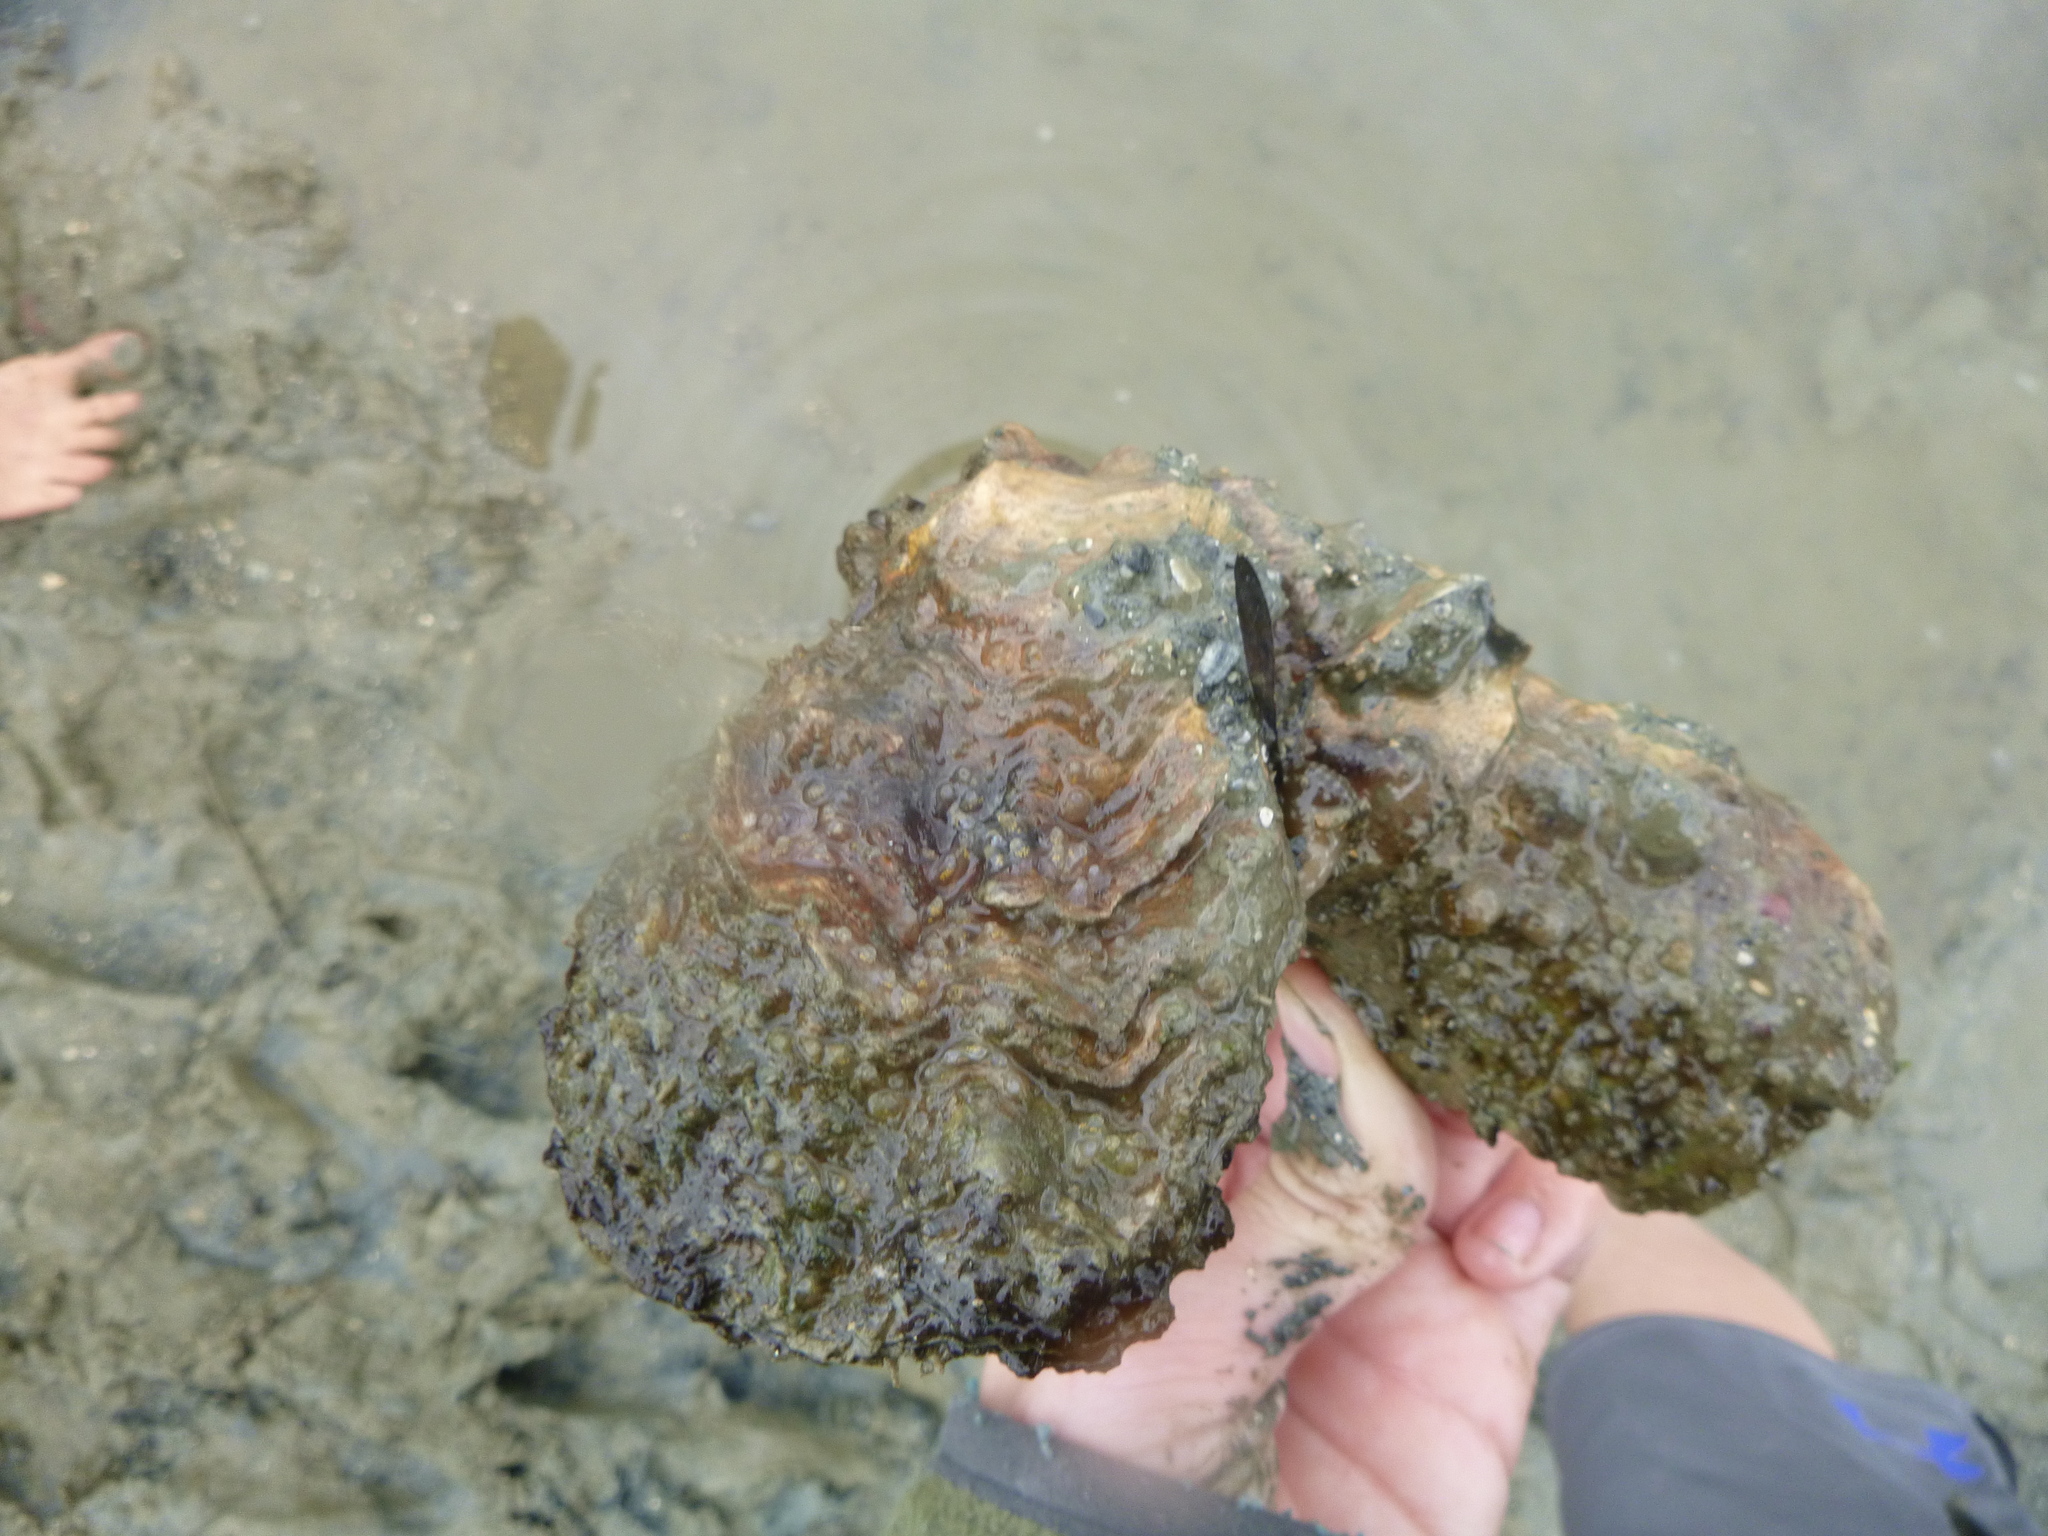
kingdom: Animalia
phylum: Mollusca
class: Bivalvia
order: Ostreida
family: Ostreidae
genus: Magallana
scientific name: Magallana gigas
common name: Pacific oyster
